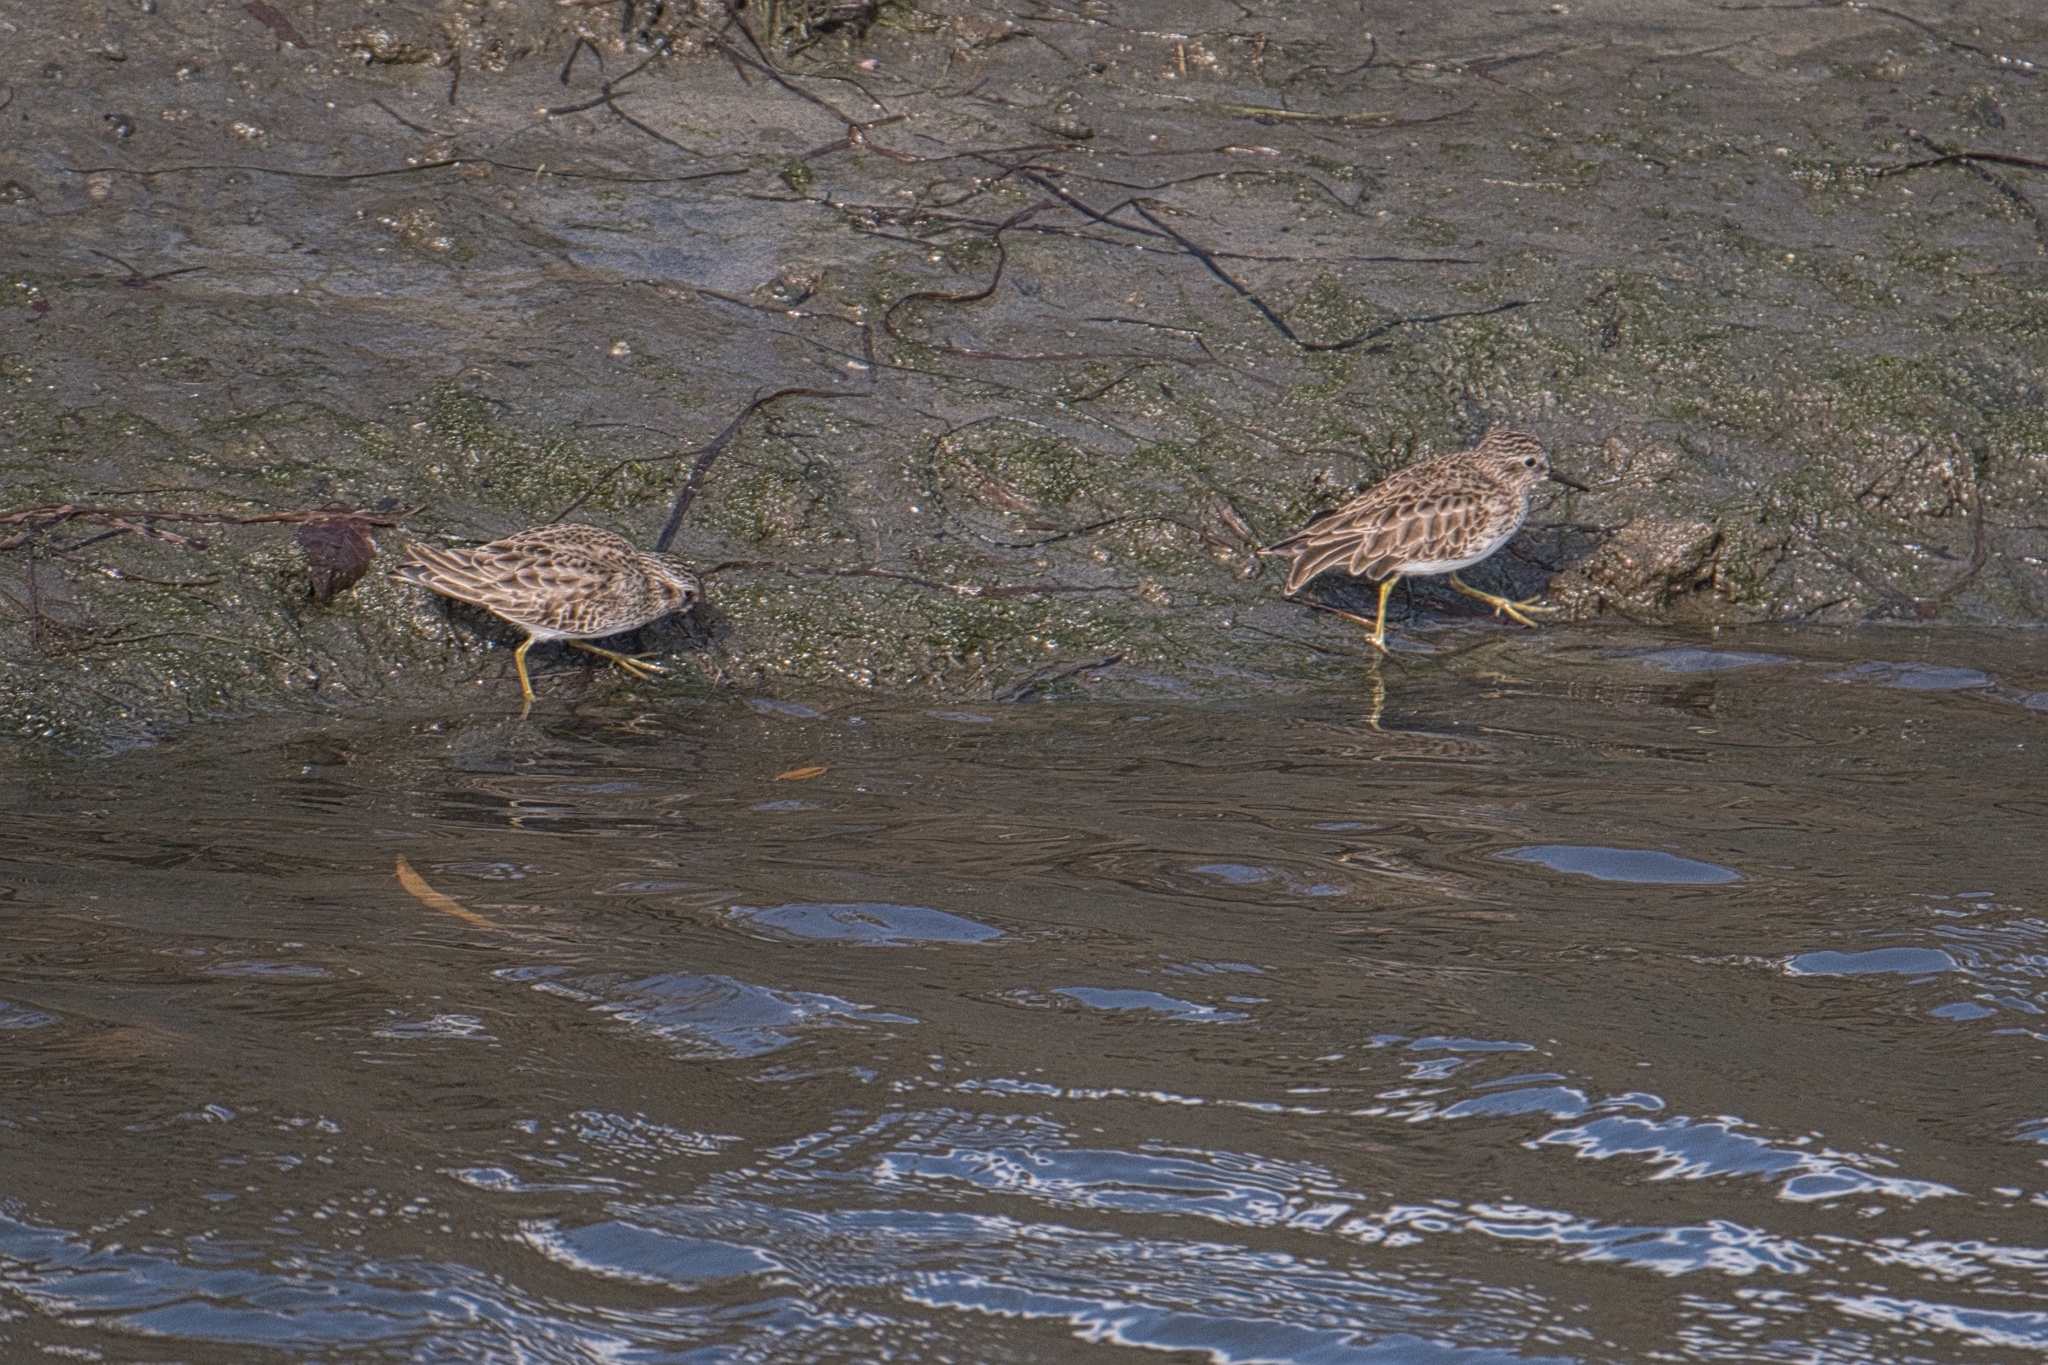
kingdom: Animalia
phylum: Chordata
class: Aves
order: Charadriiformes
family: Scolopacidae
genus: Calidris
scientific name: Calidris minutilla
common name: Least sandpiper
